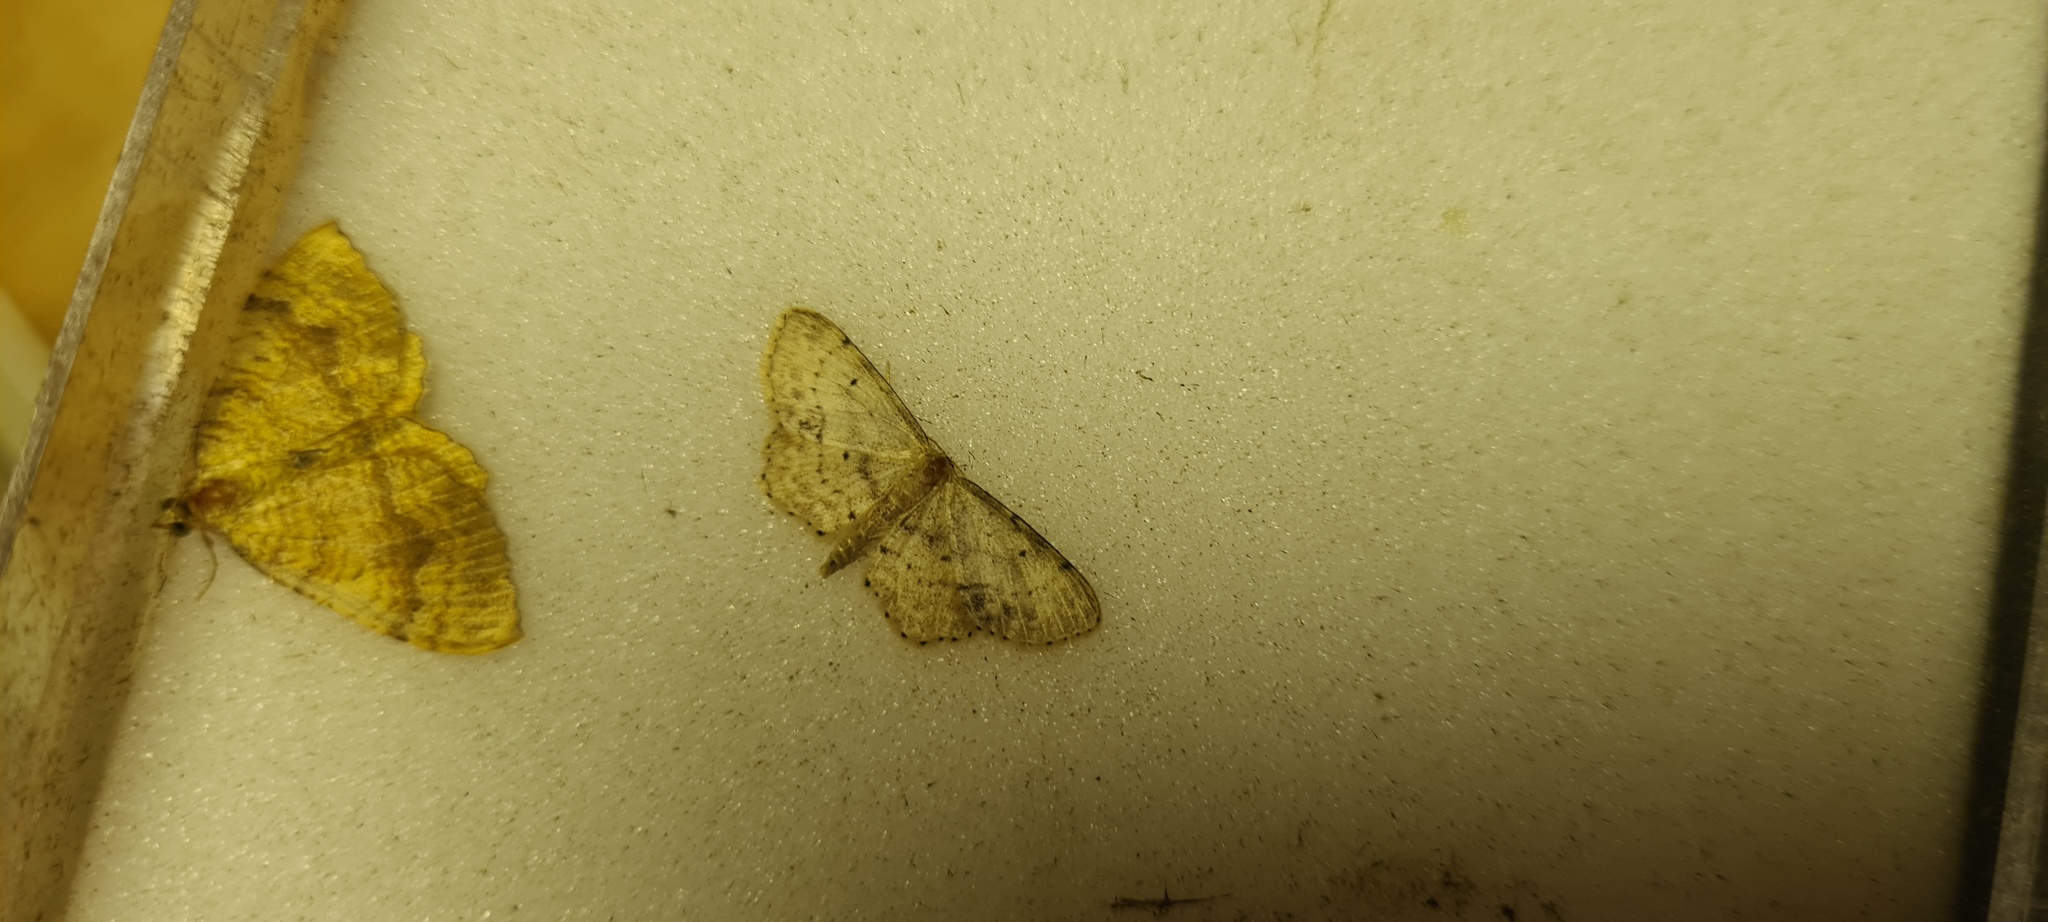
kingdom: Animalia
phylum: Arthropoda
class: Insecta
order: Lepidoptera
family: Geometridae
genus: Idaea
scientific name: Idaea dimidiata
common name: Single-dotted wave
